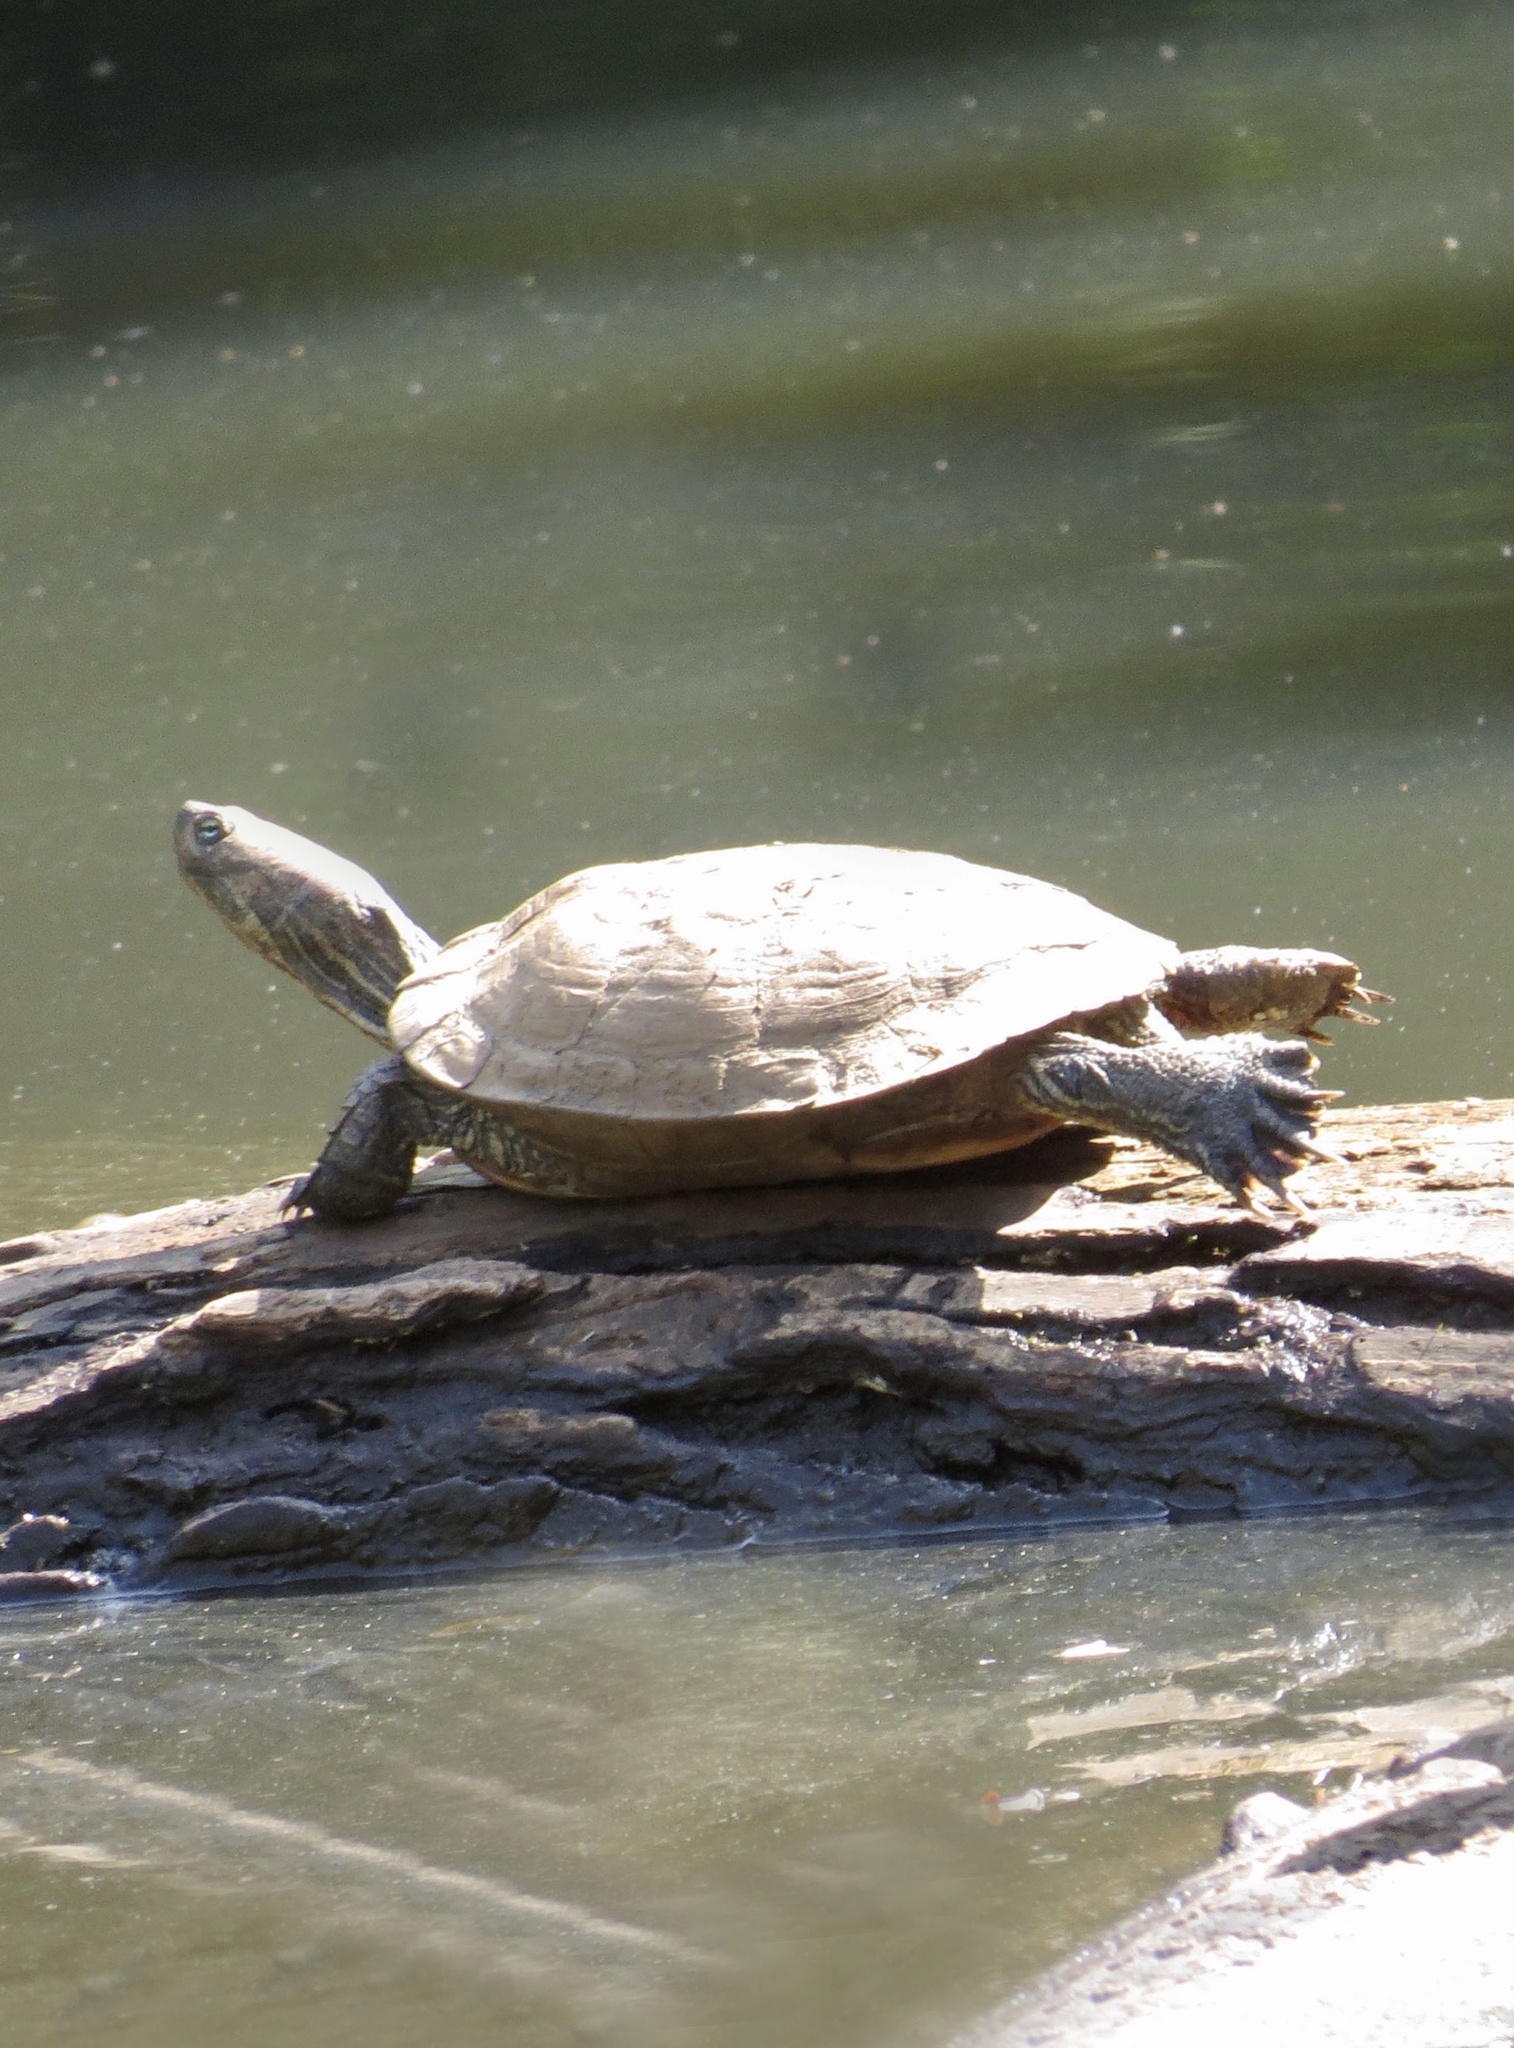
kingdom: Animalia
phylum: Chordata
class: Testudines
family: Emydidae
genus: Trachemys
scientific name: Trachemys scripta
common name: Slider
